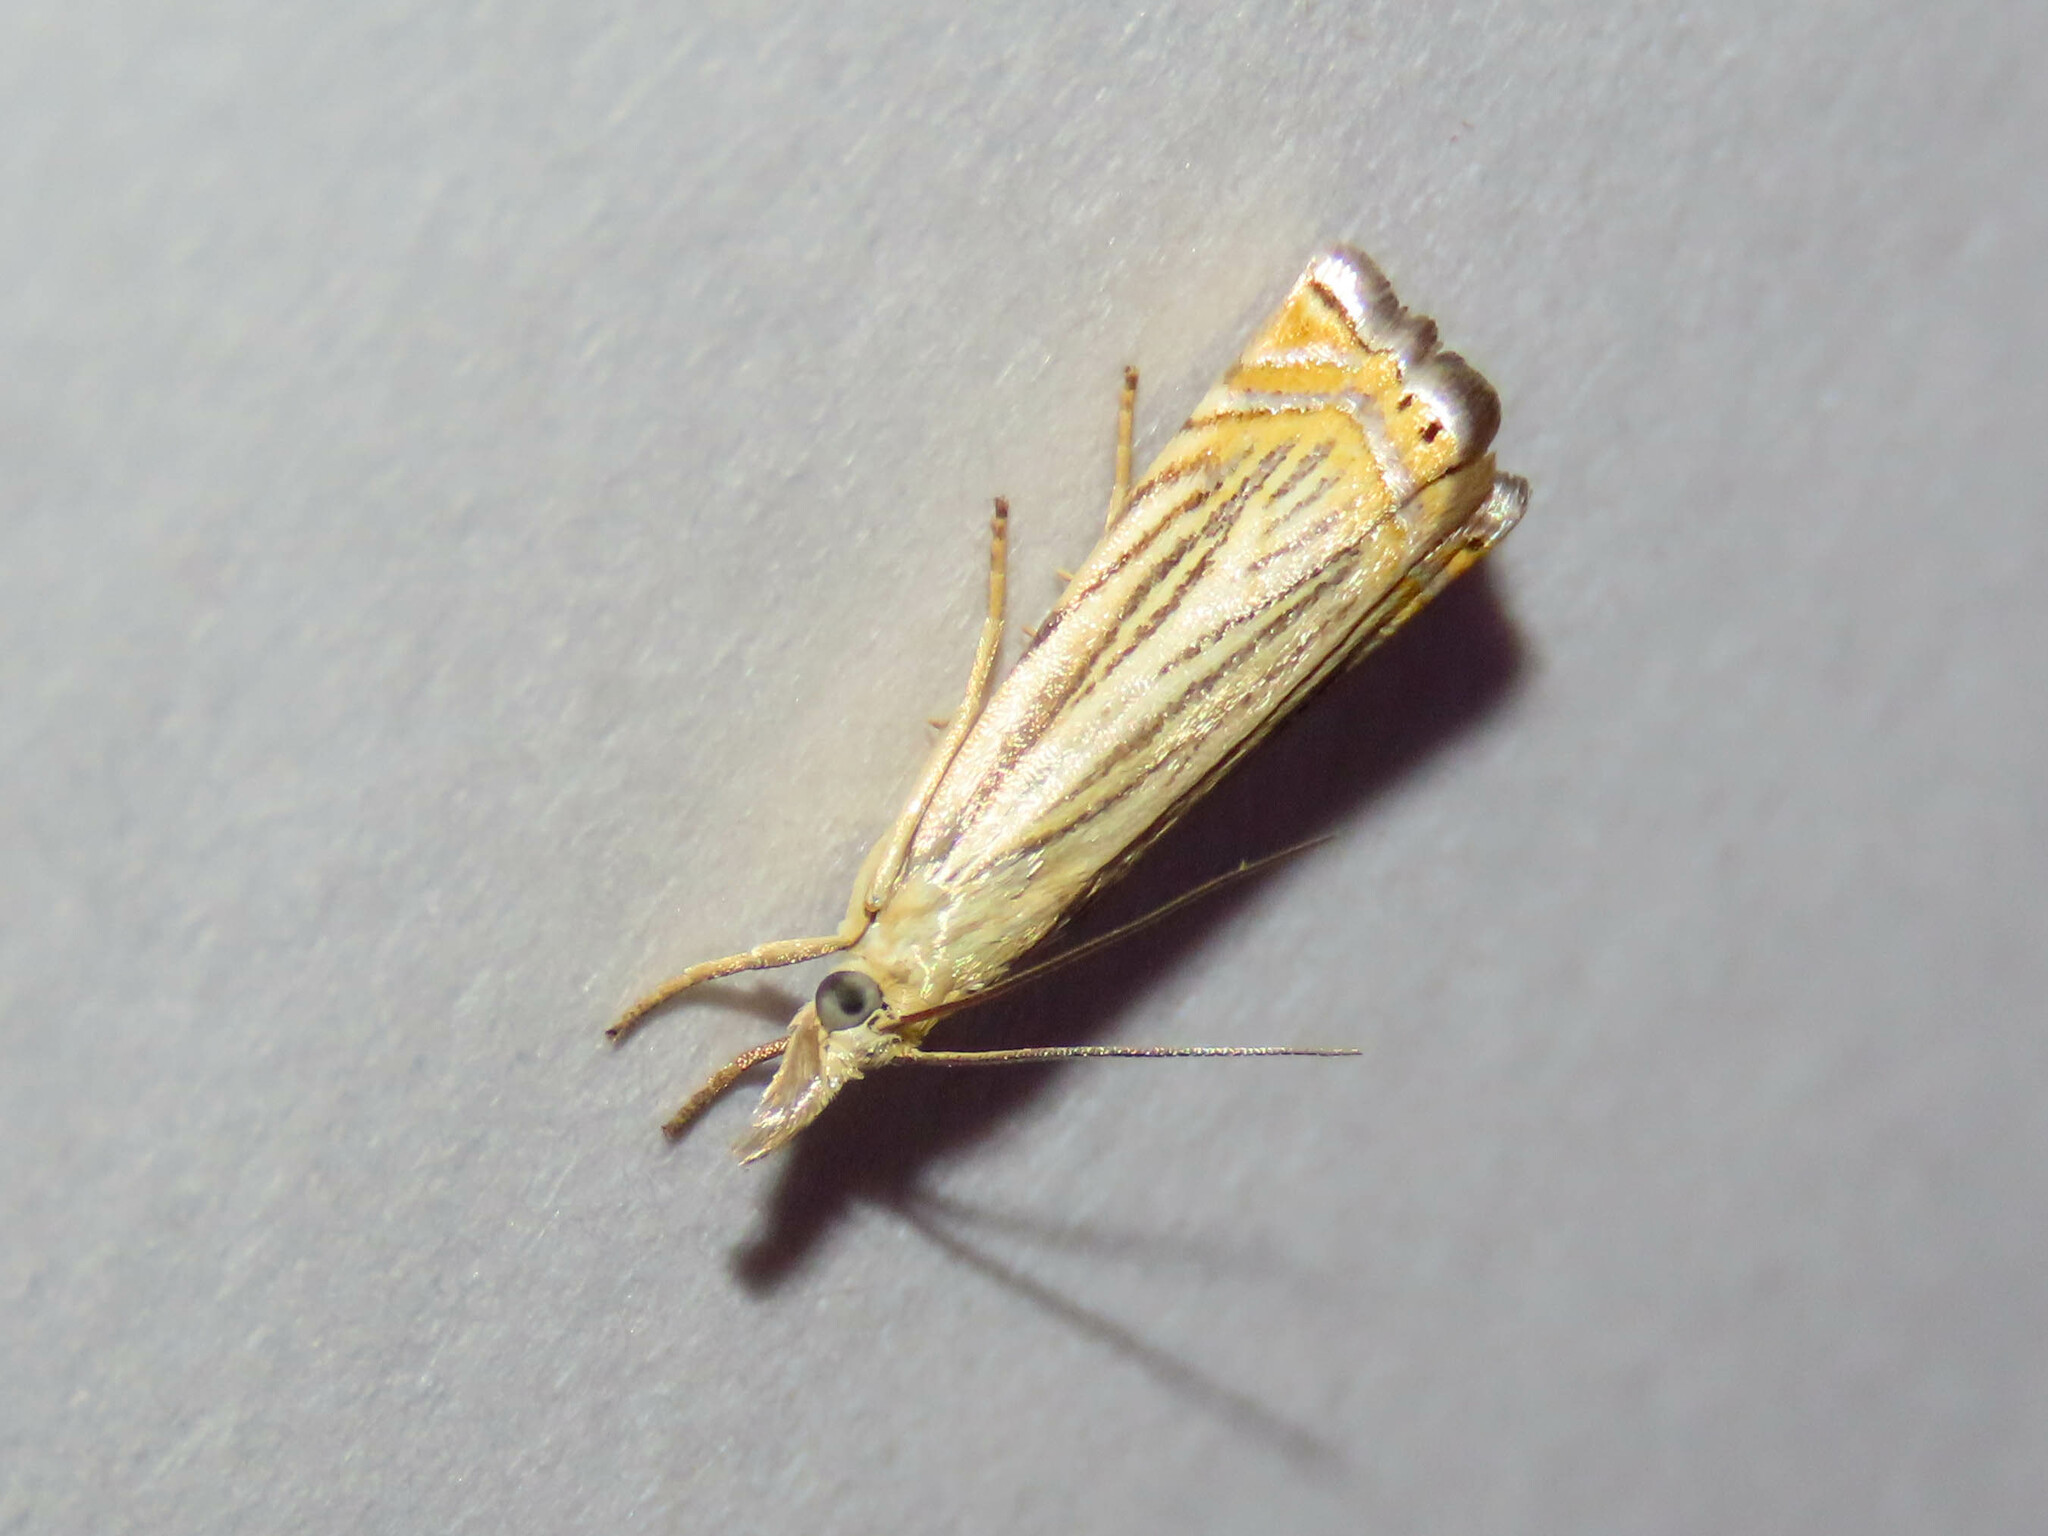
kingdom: Animalia
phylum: Arthropoda
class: Insecta
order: Lepidoptera
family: Crambidae
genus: Chrysoteuchia
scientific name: Chrysoteuchia topiarius
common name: Topiary grass-veneer
